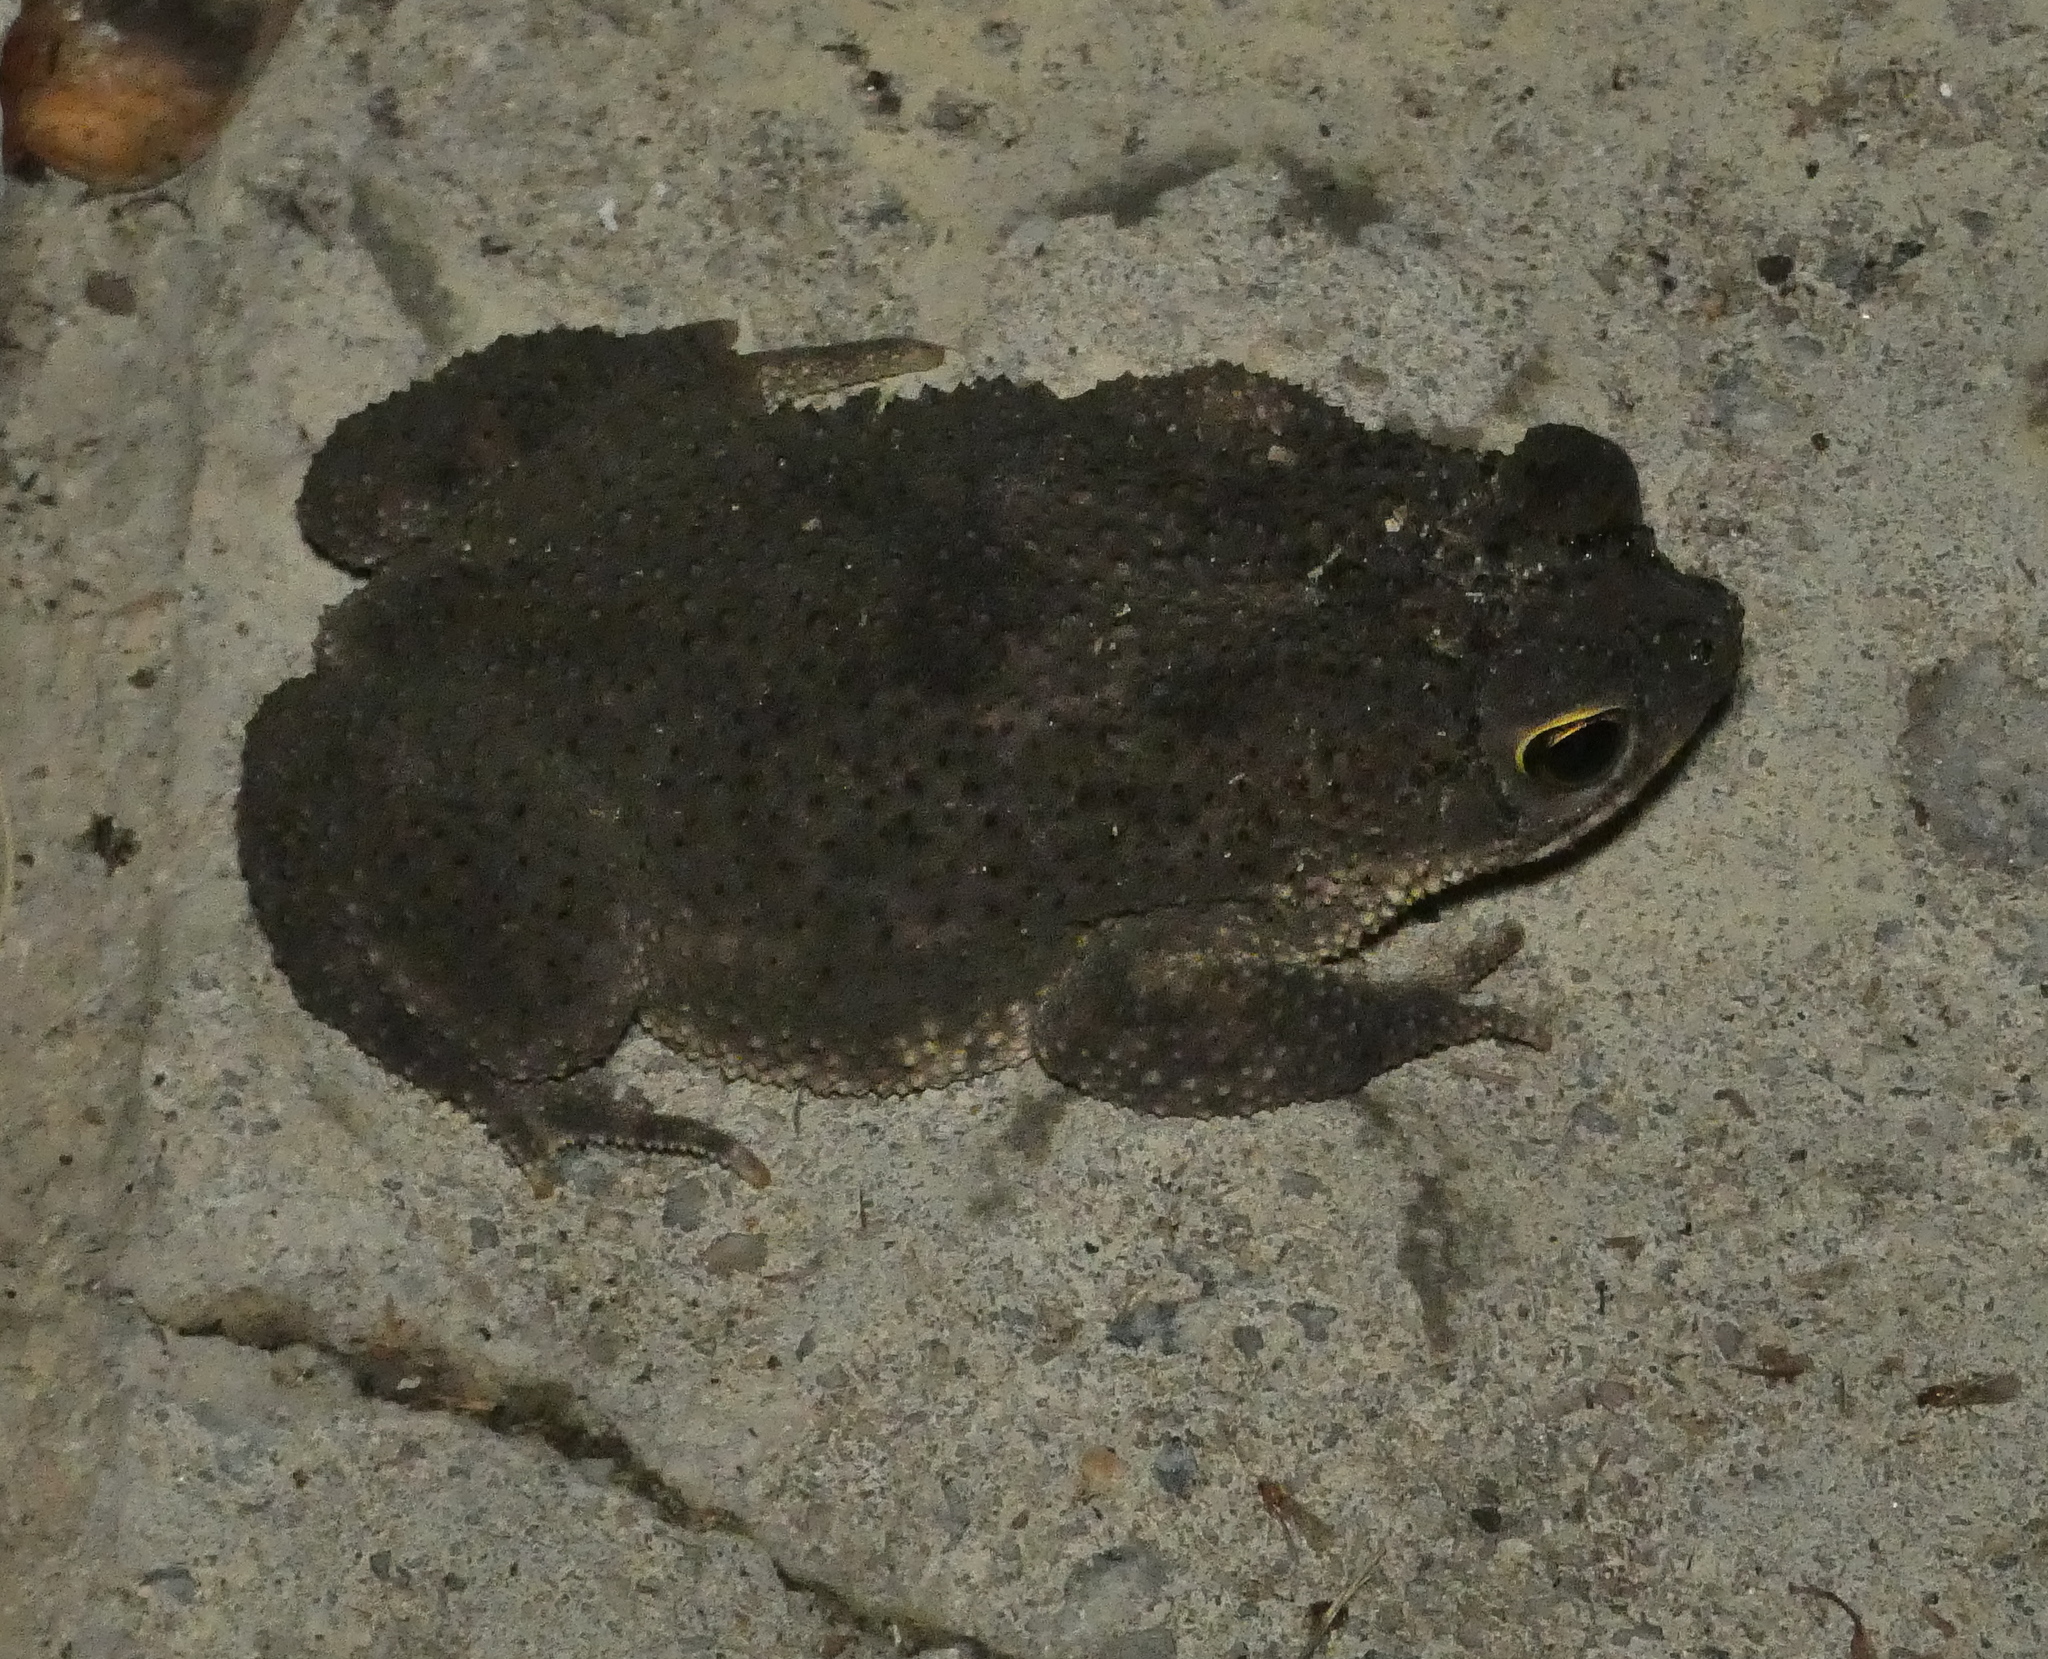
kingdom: Animalia
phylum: Chordata
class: Amphibia
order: Anura
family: Bufonidae
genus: Rhinella
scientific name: Rhinella granulosa
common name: Common lesser toad
